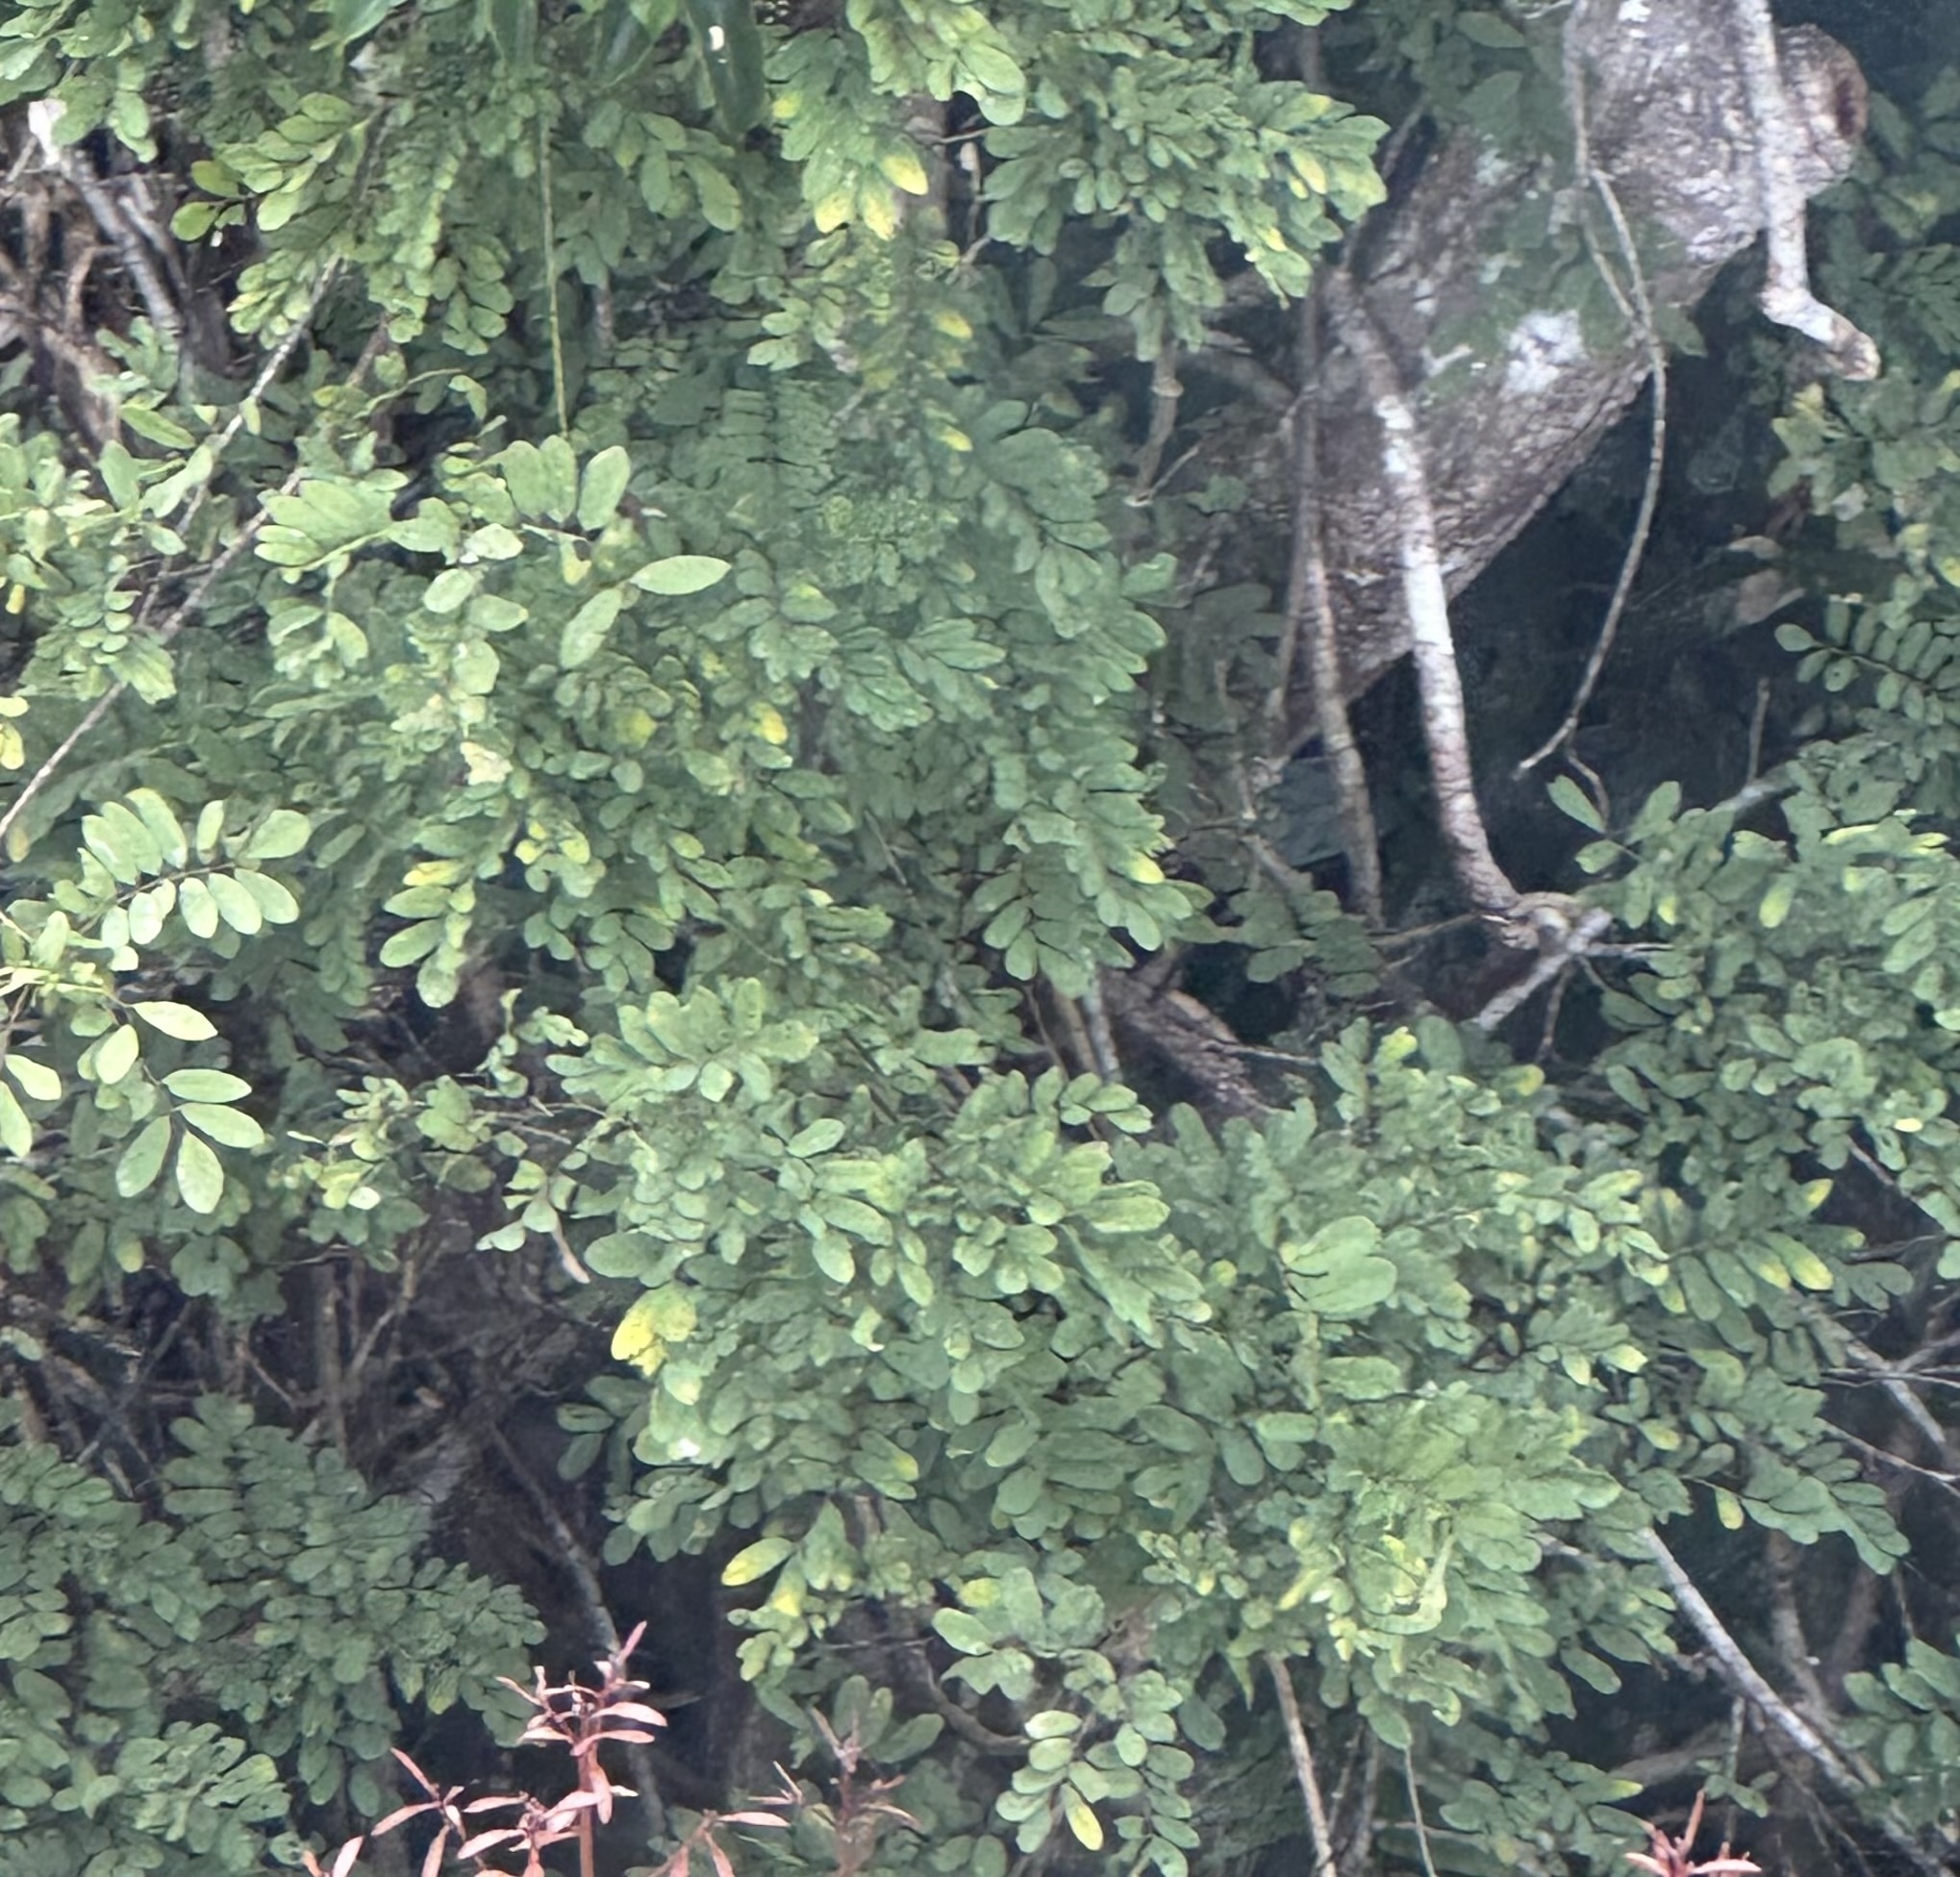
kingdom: Plantae
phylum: Tracheophyta
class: Magnoliopsida
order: Fabales
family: Fabaceae
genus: Austrosteenisia
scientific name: Austrosteenisia stipularis
